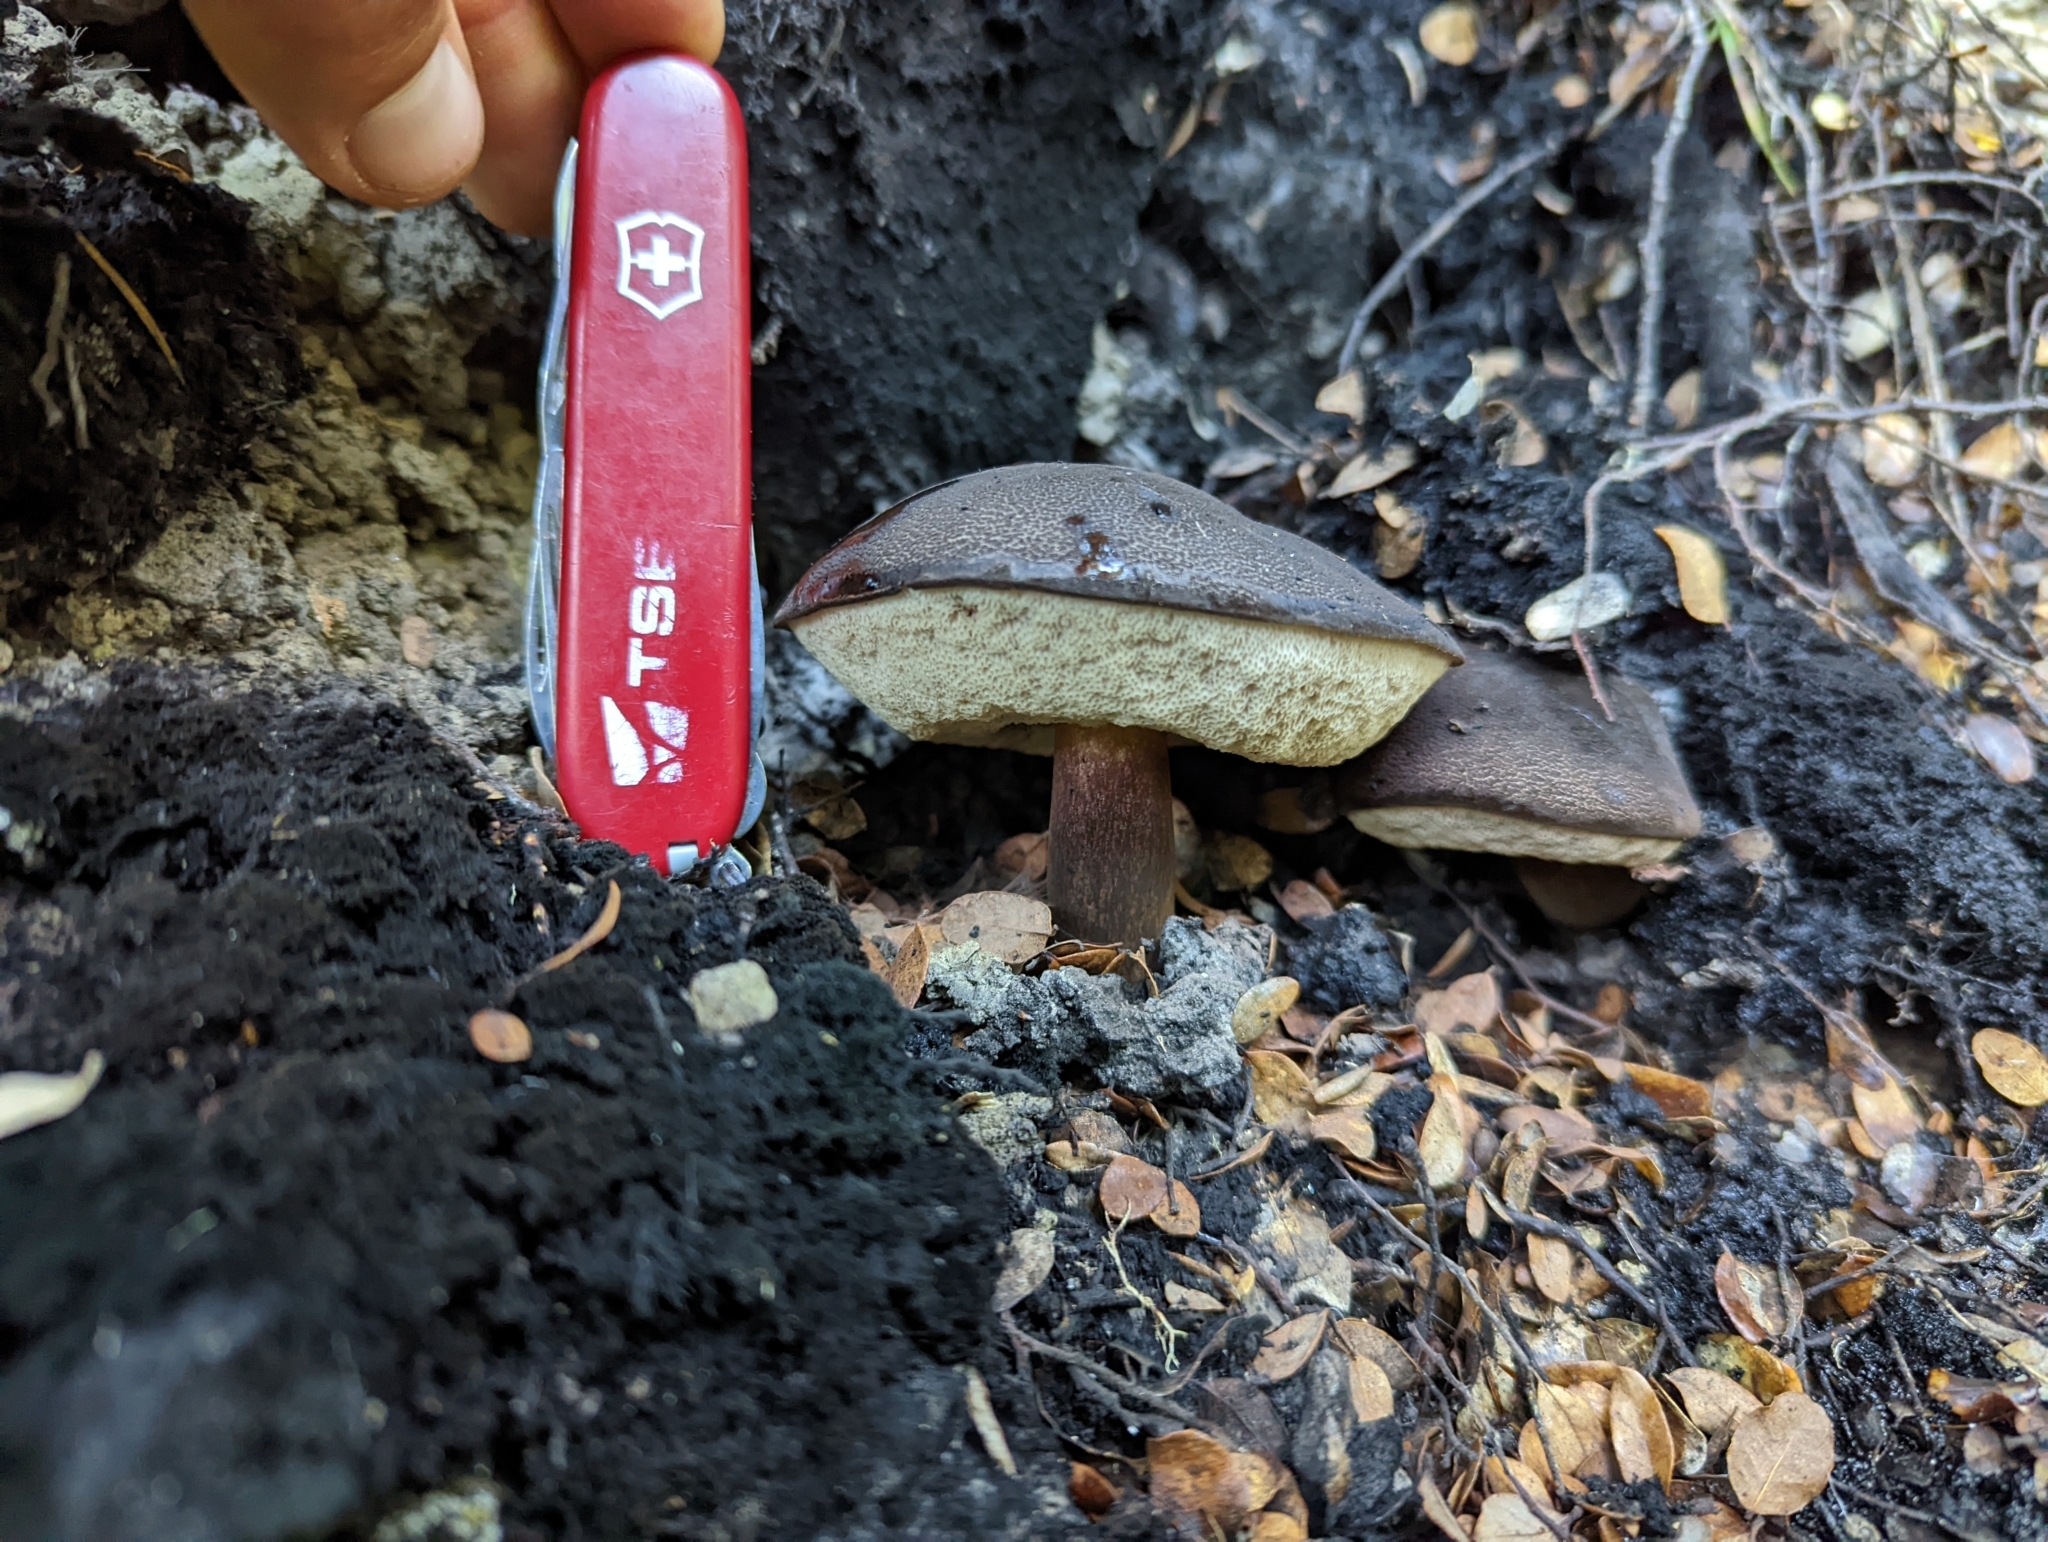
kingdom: Fungi
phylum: Basidiomycota
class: Agaricomycetes
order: Boletales
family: Boletaceae
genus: Porphyrellus
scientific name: Porphyrellus formosus
